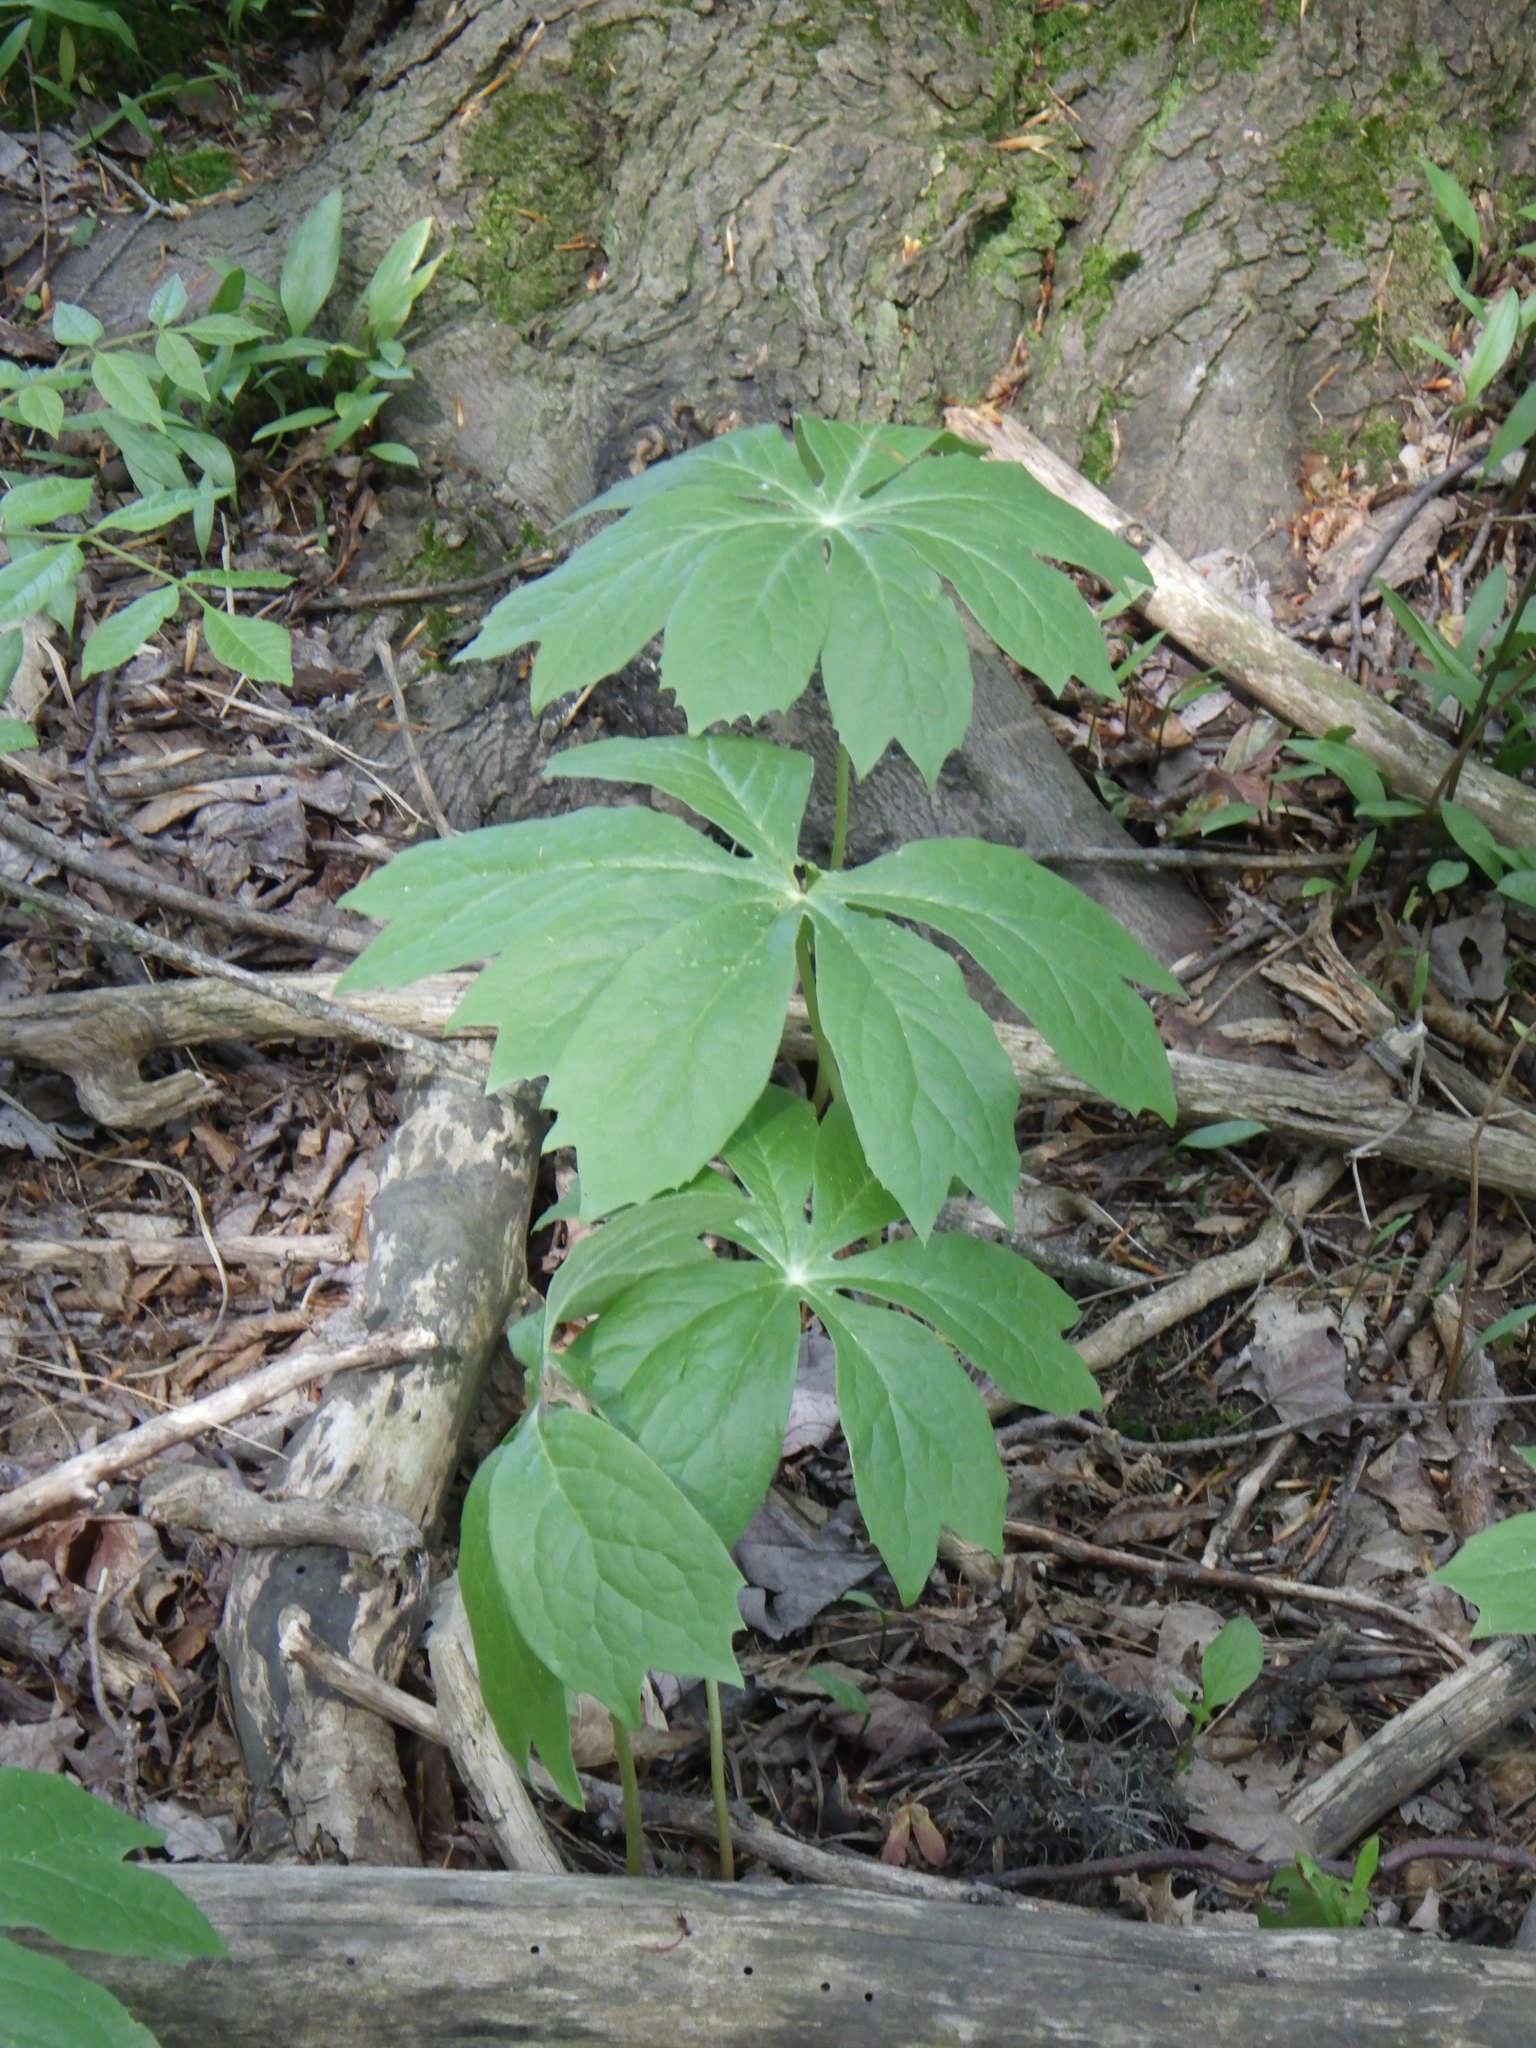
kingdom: Plantae
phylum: Tracheophyta
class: Magnoliopsida
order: Ranunculales
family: Berberidaceae
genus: Podophyllum
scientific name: Podophyllum peltatum
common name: Wild mandrake
